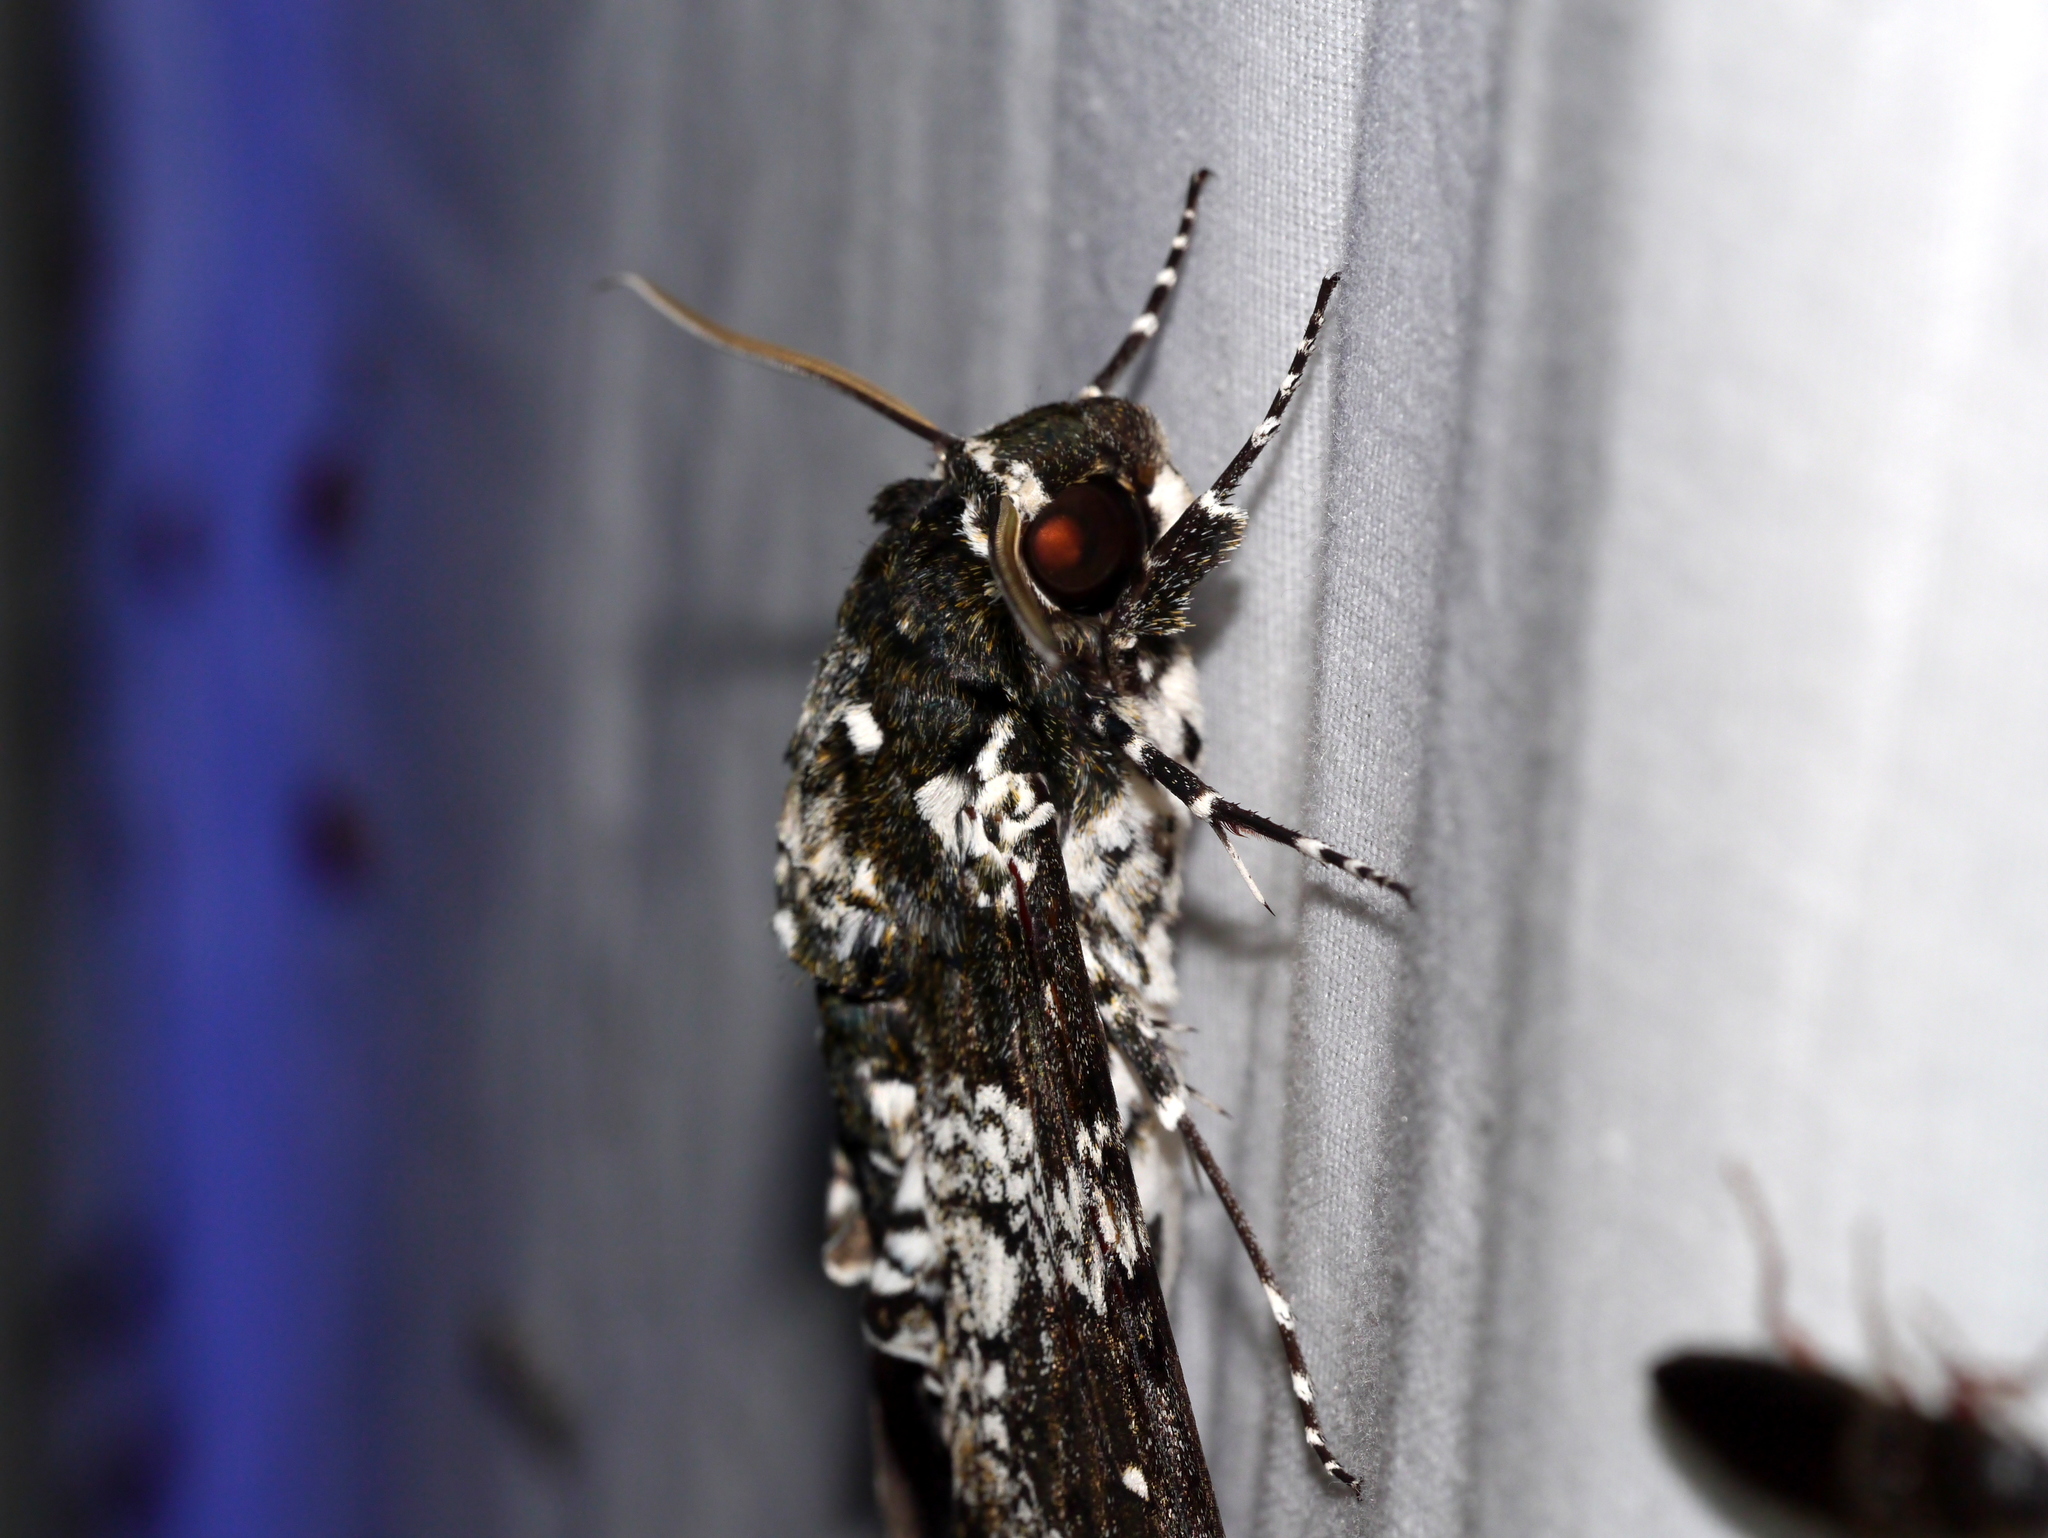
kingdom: Animalia
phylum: Arthropoda
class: Insecta
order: Lepidoptera
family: Sphingidae
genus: Manduca
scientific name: Manduca rustica
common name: Rustic sphinx
